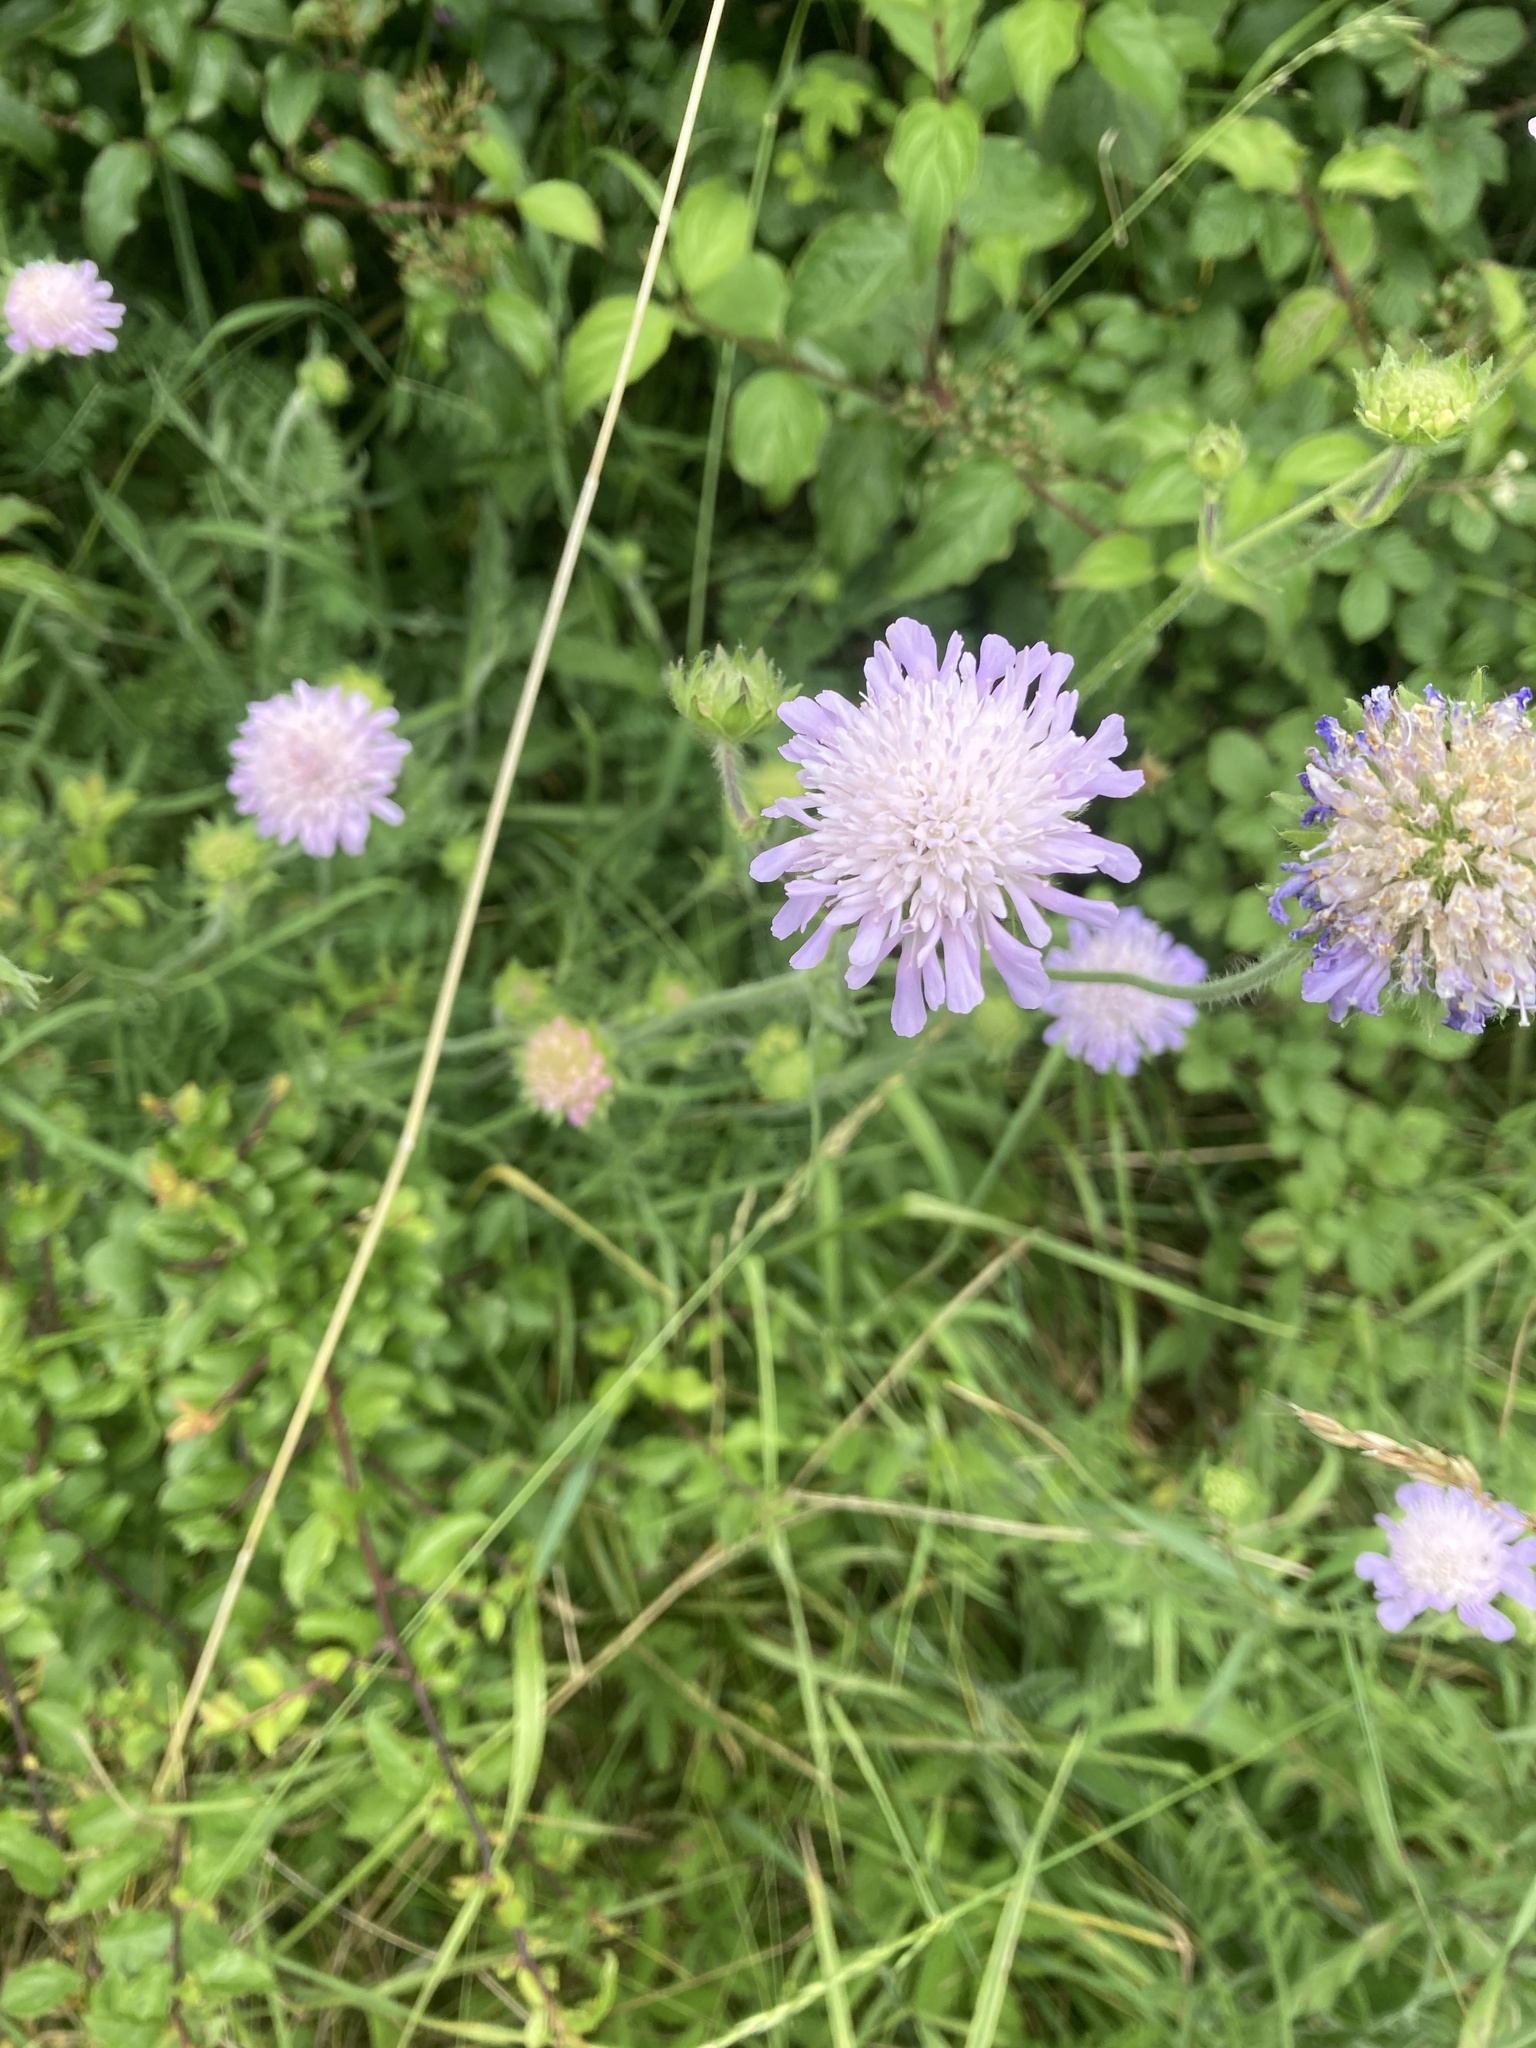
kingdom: Plantae
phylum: Tracheophyta
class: Magnoliopsida
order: Dipsacales
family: Caprifoliaceae
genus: Knautia
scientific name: Knautia arvensis
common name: Field scabiosa
